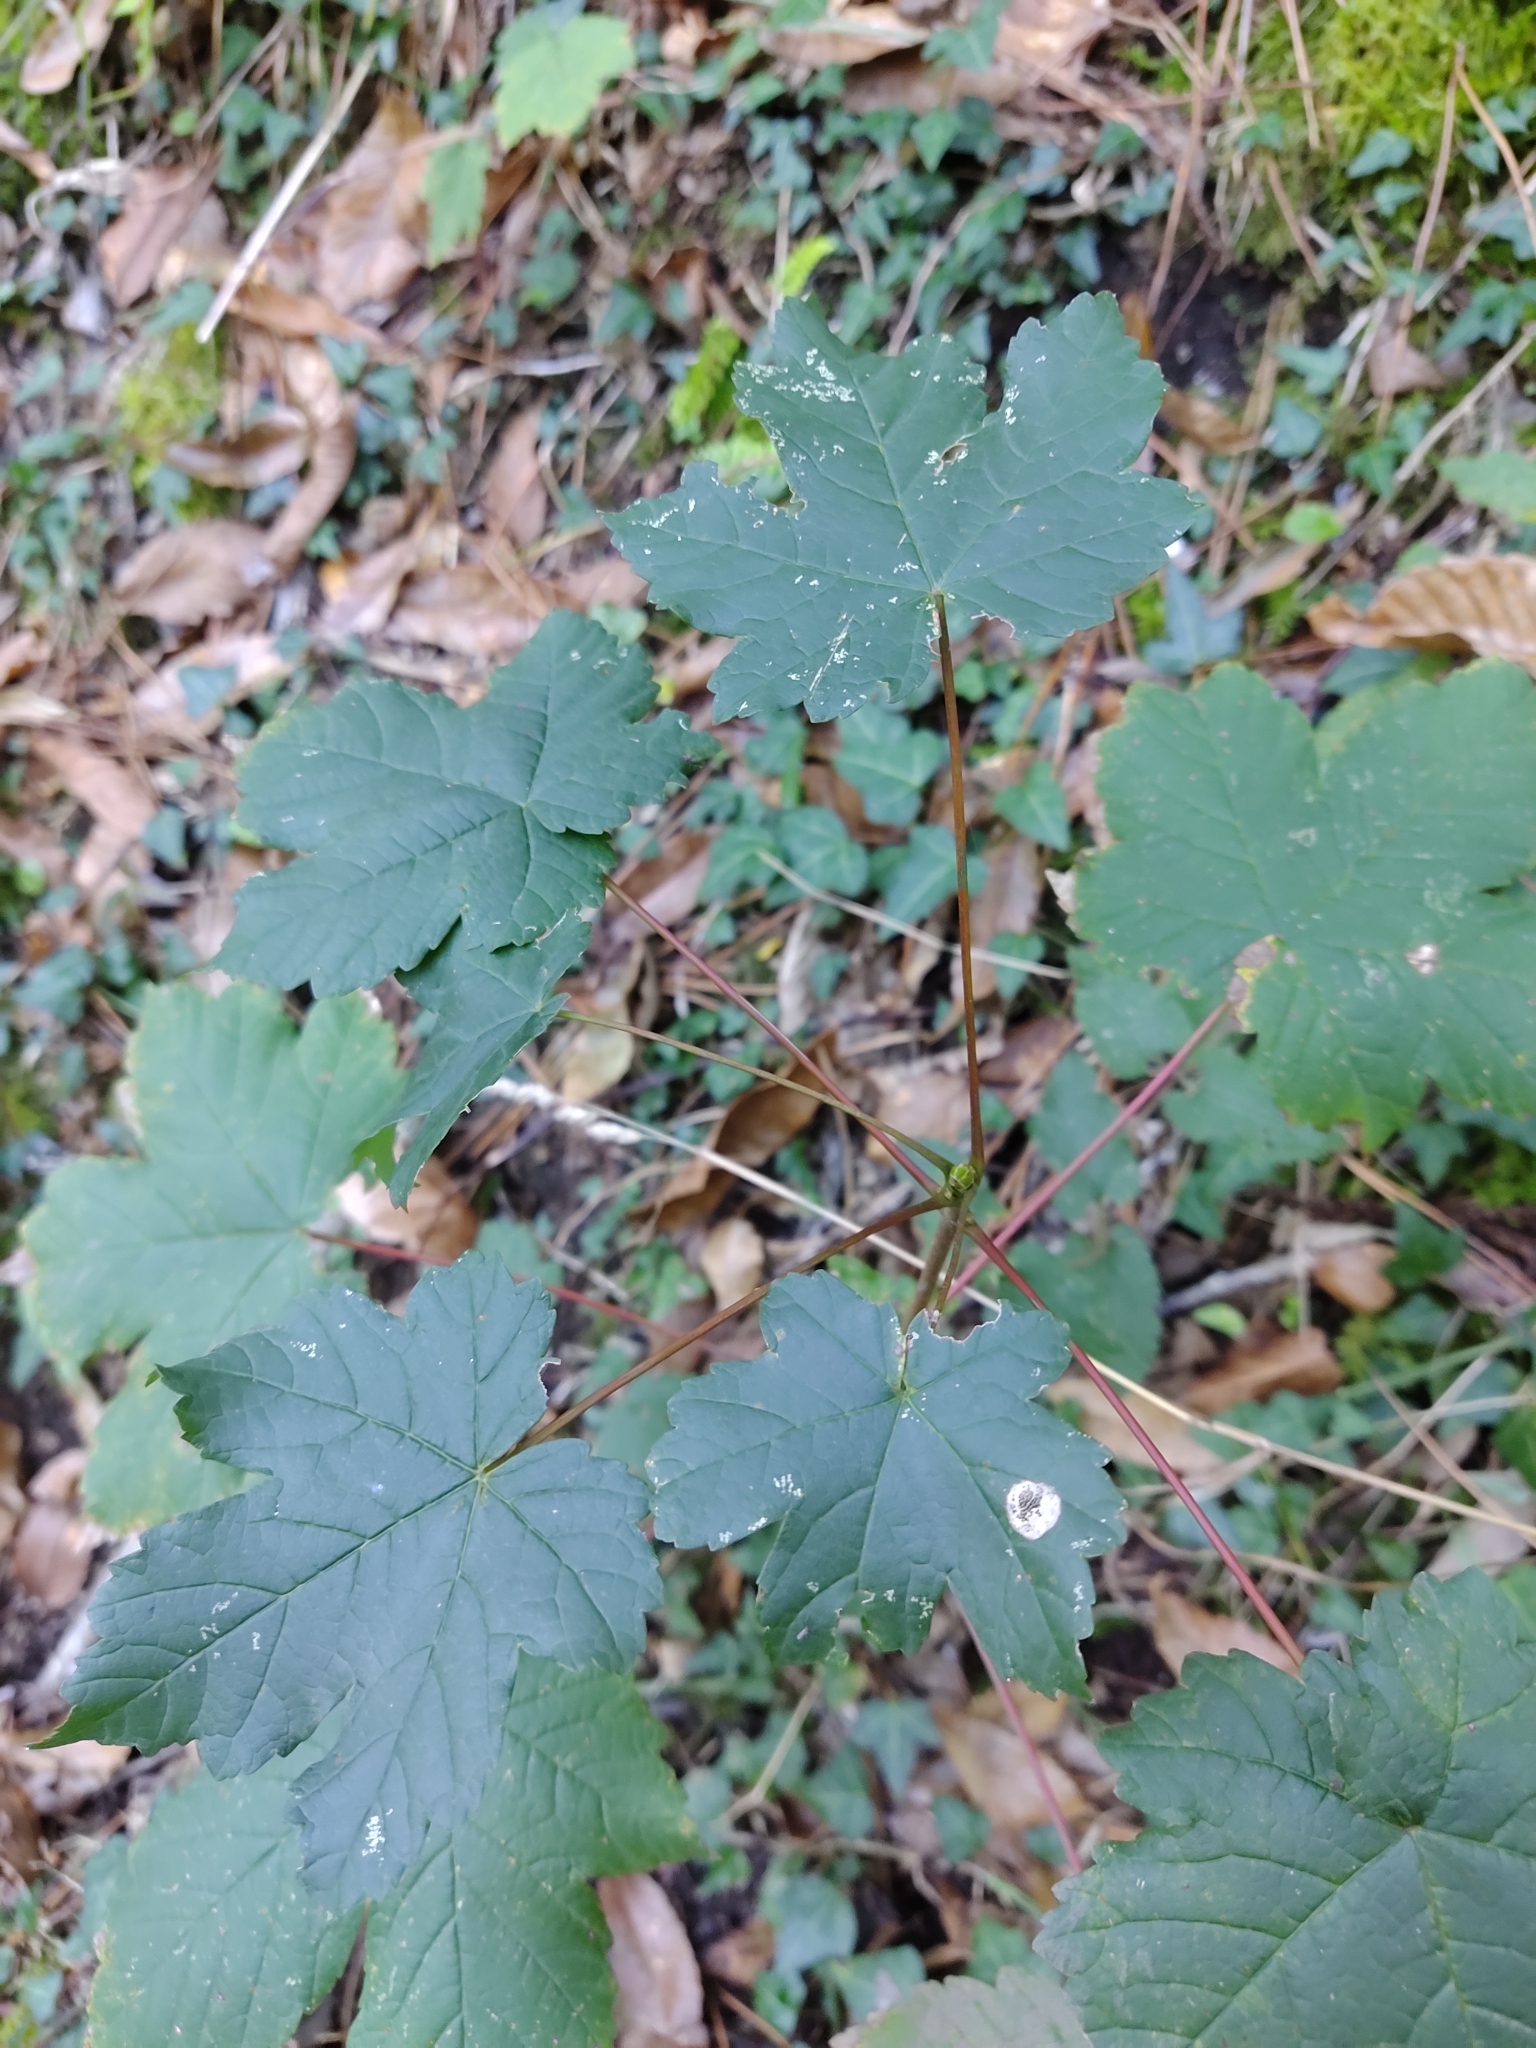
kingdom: Plantae
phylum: Tracheophyta
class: Magnoliopsida
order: Sapindales
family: Sapindaceae
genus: Acer
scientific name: Acer pseudoplatanus
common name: Sycamore
